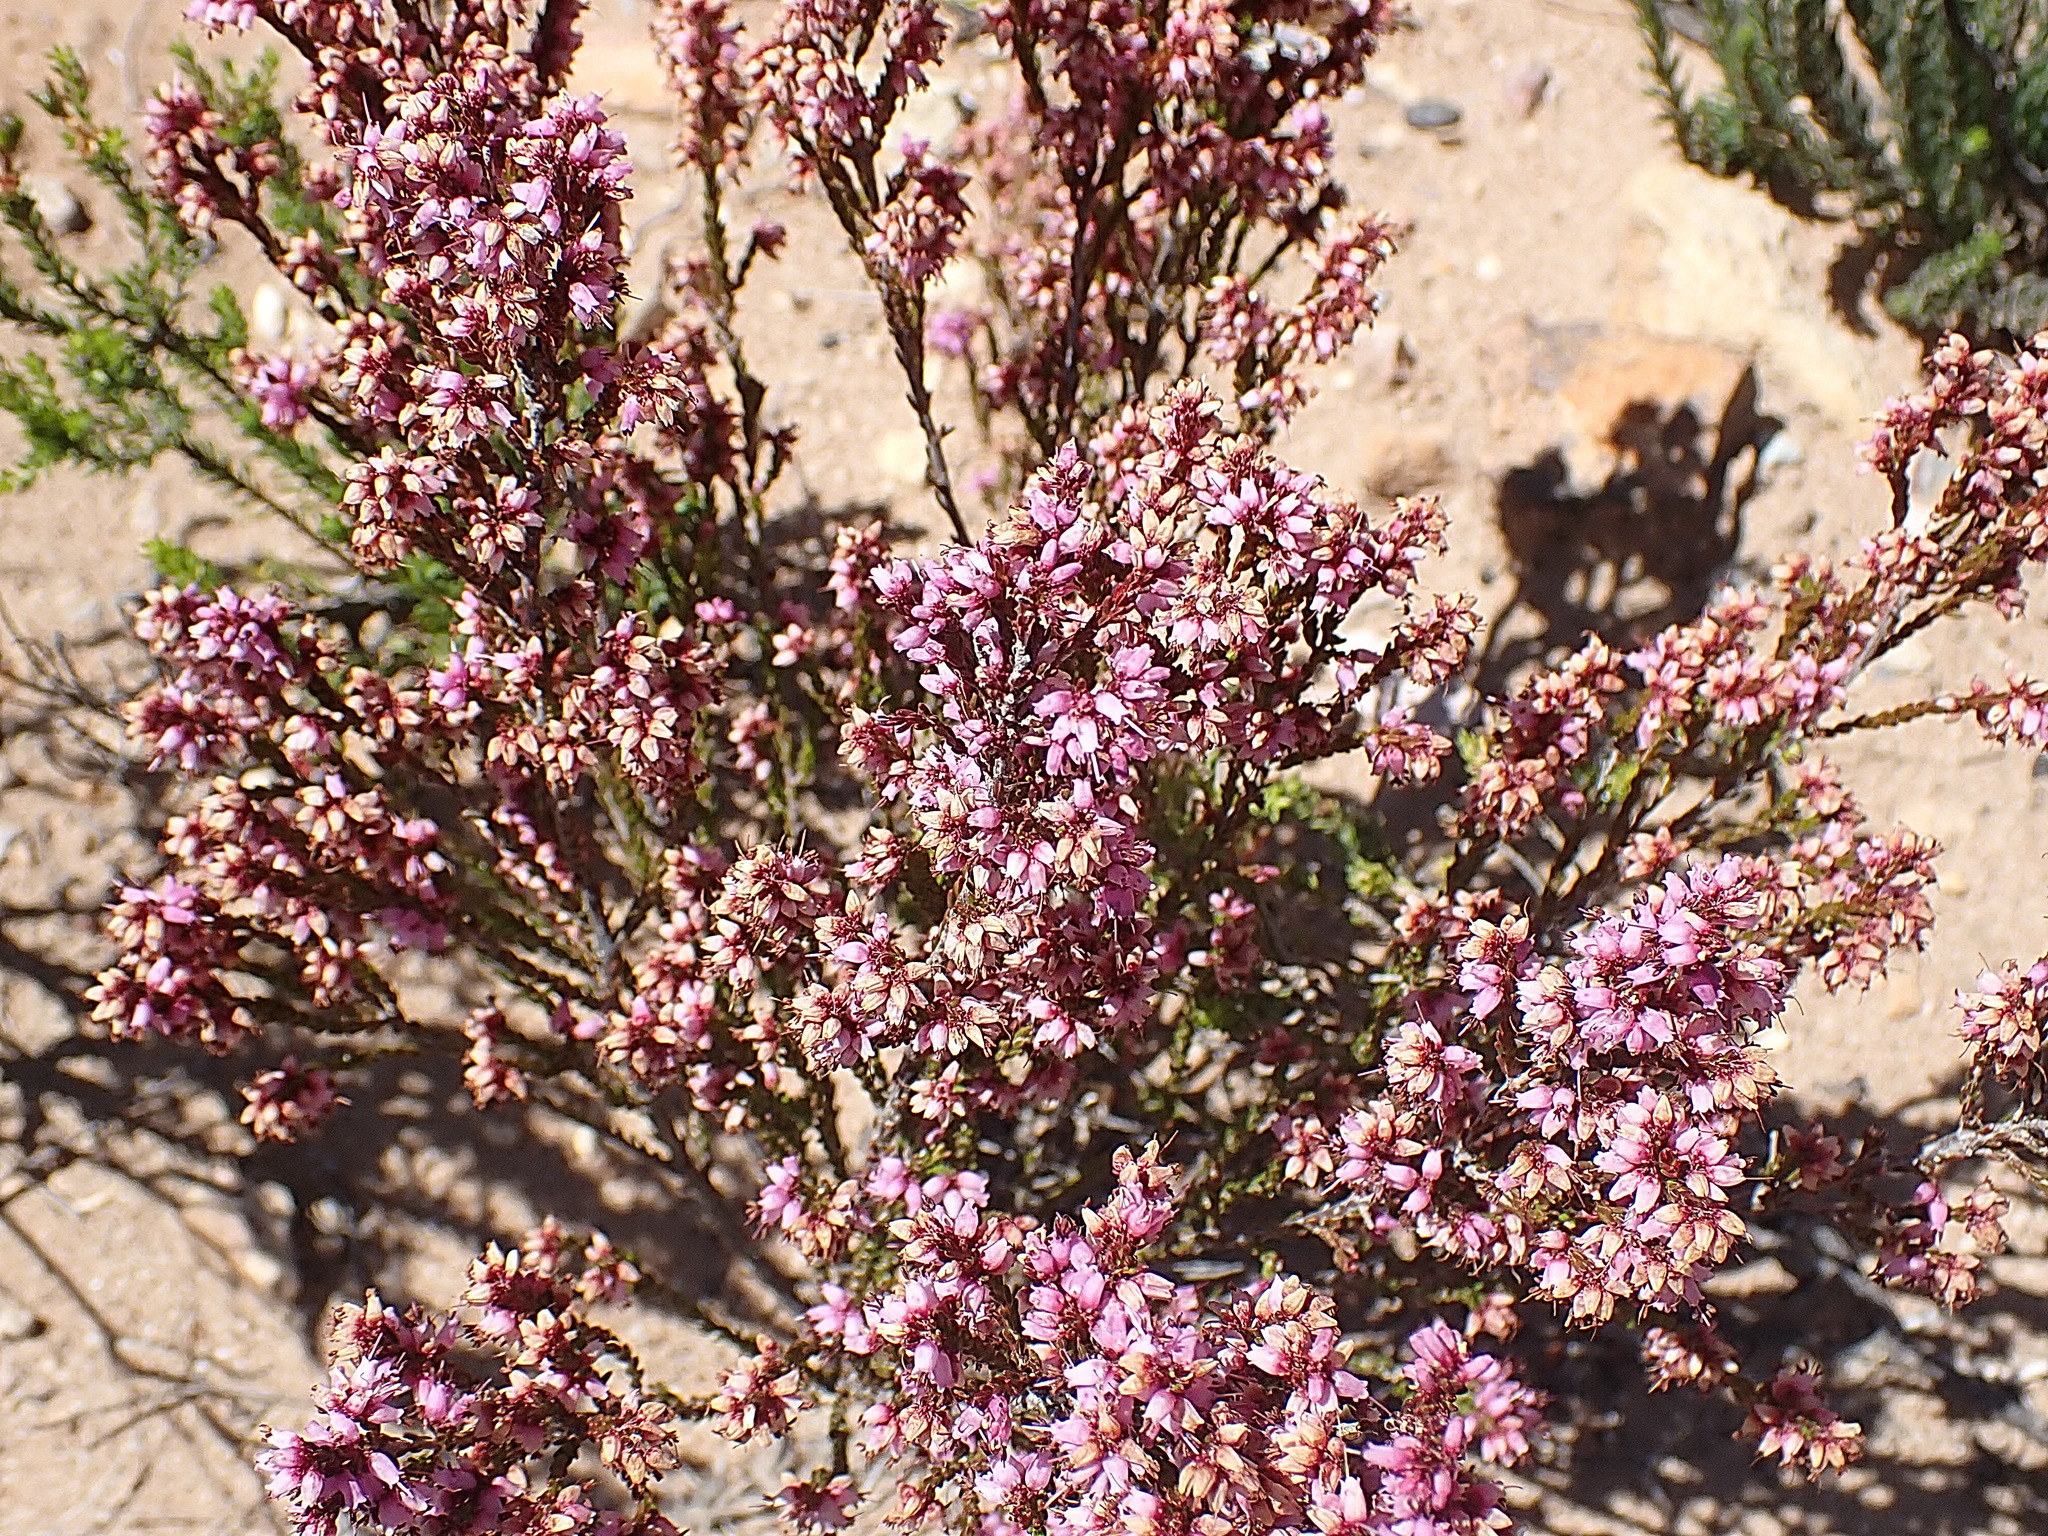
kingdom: Plantae
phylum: Tracheophyta
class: Magnoliopsida
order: Ericales
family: Ericaceae
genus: Erica
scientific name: Erica uberiflora
